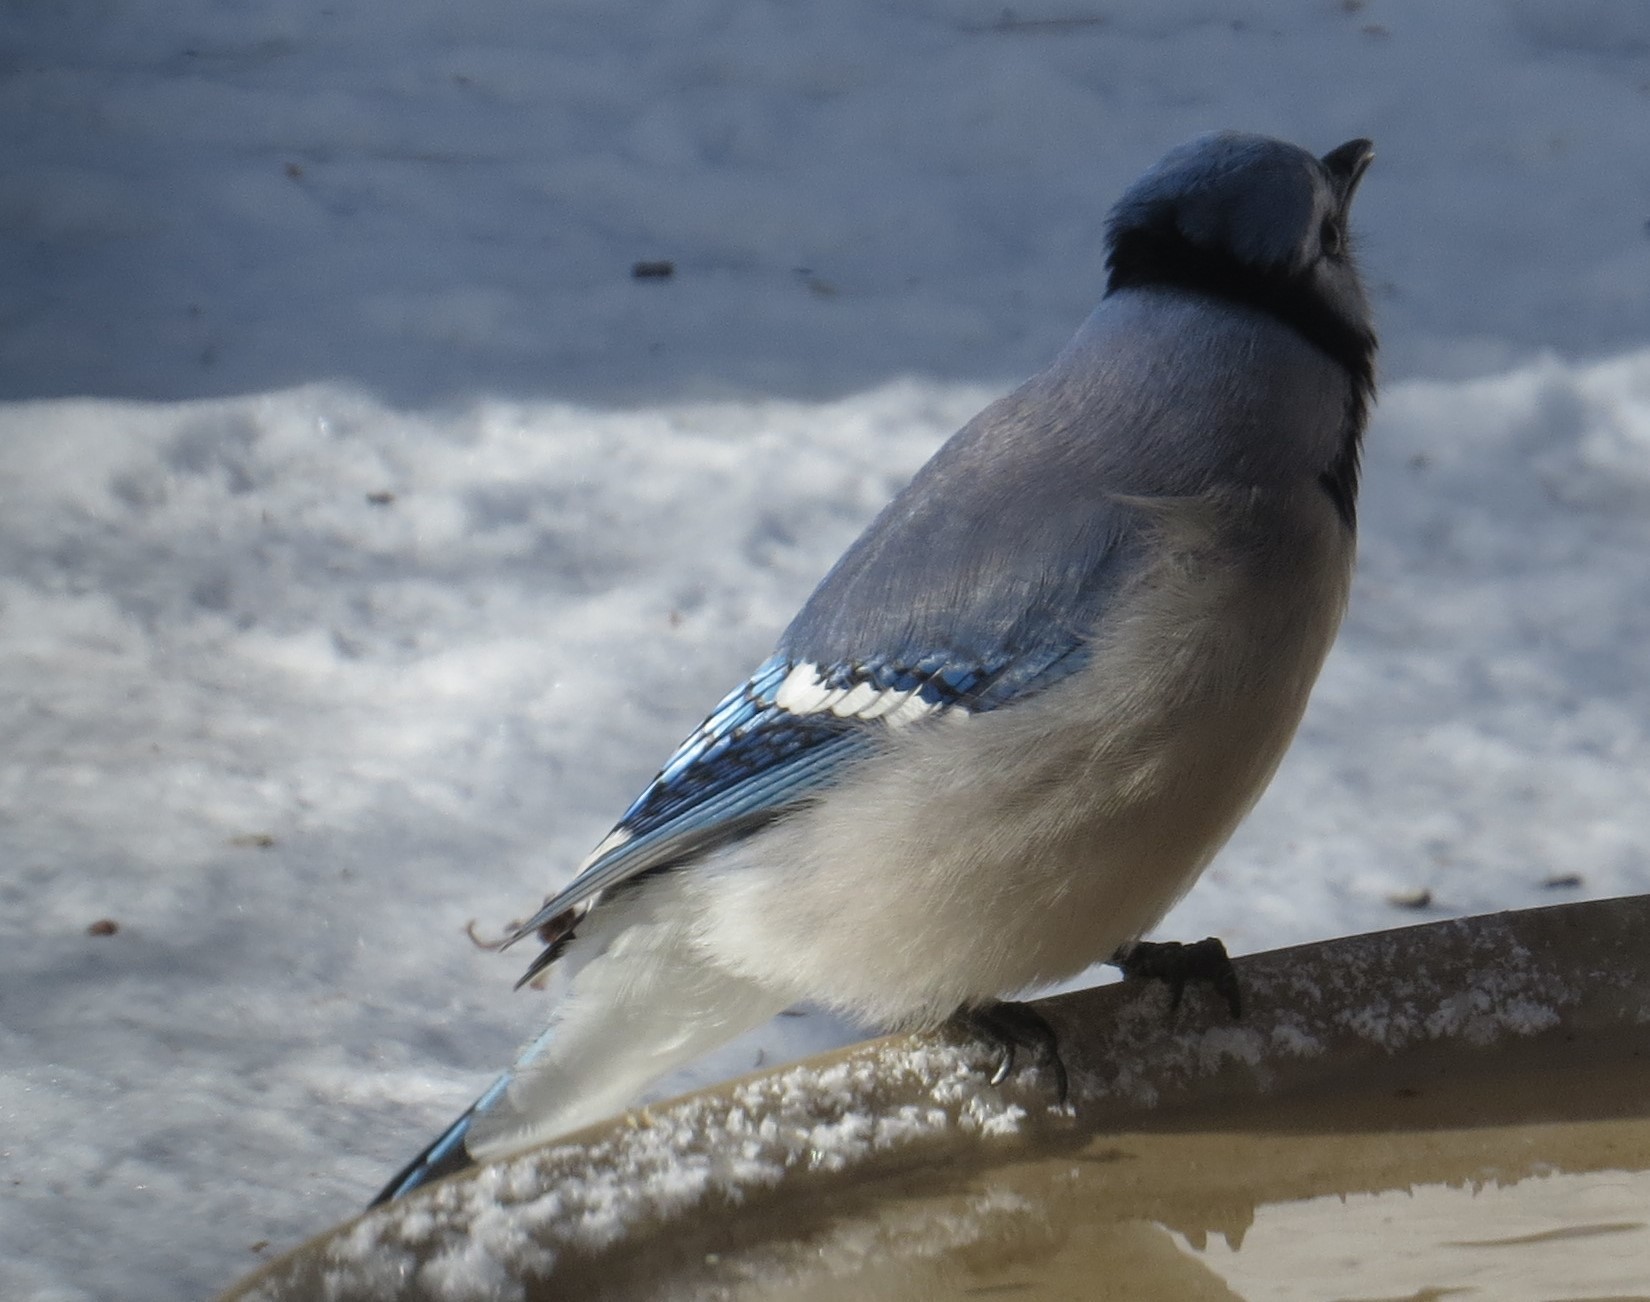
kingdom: Animalia
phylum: Chordata
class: Aves
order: Passeriformes
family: Corvidae
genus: Cyanocitta
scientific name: Cyanocitta cristata
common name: Blue jay
